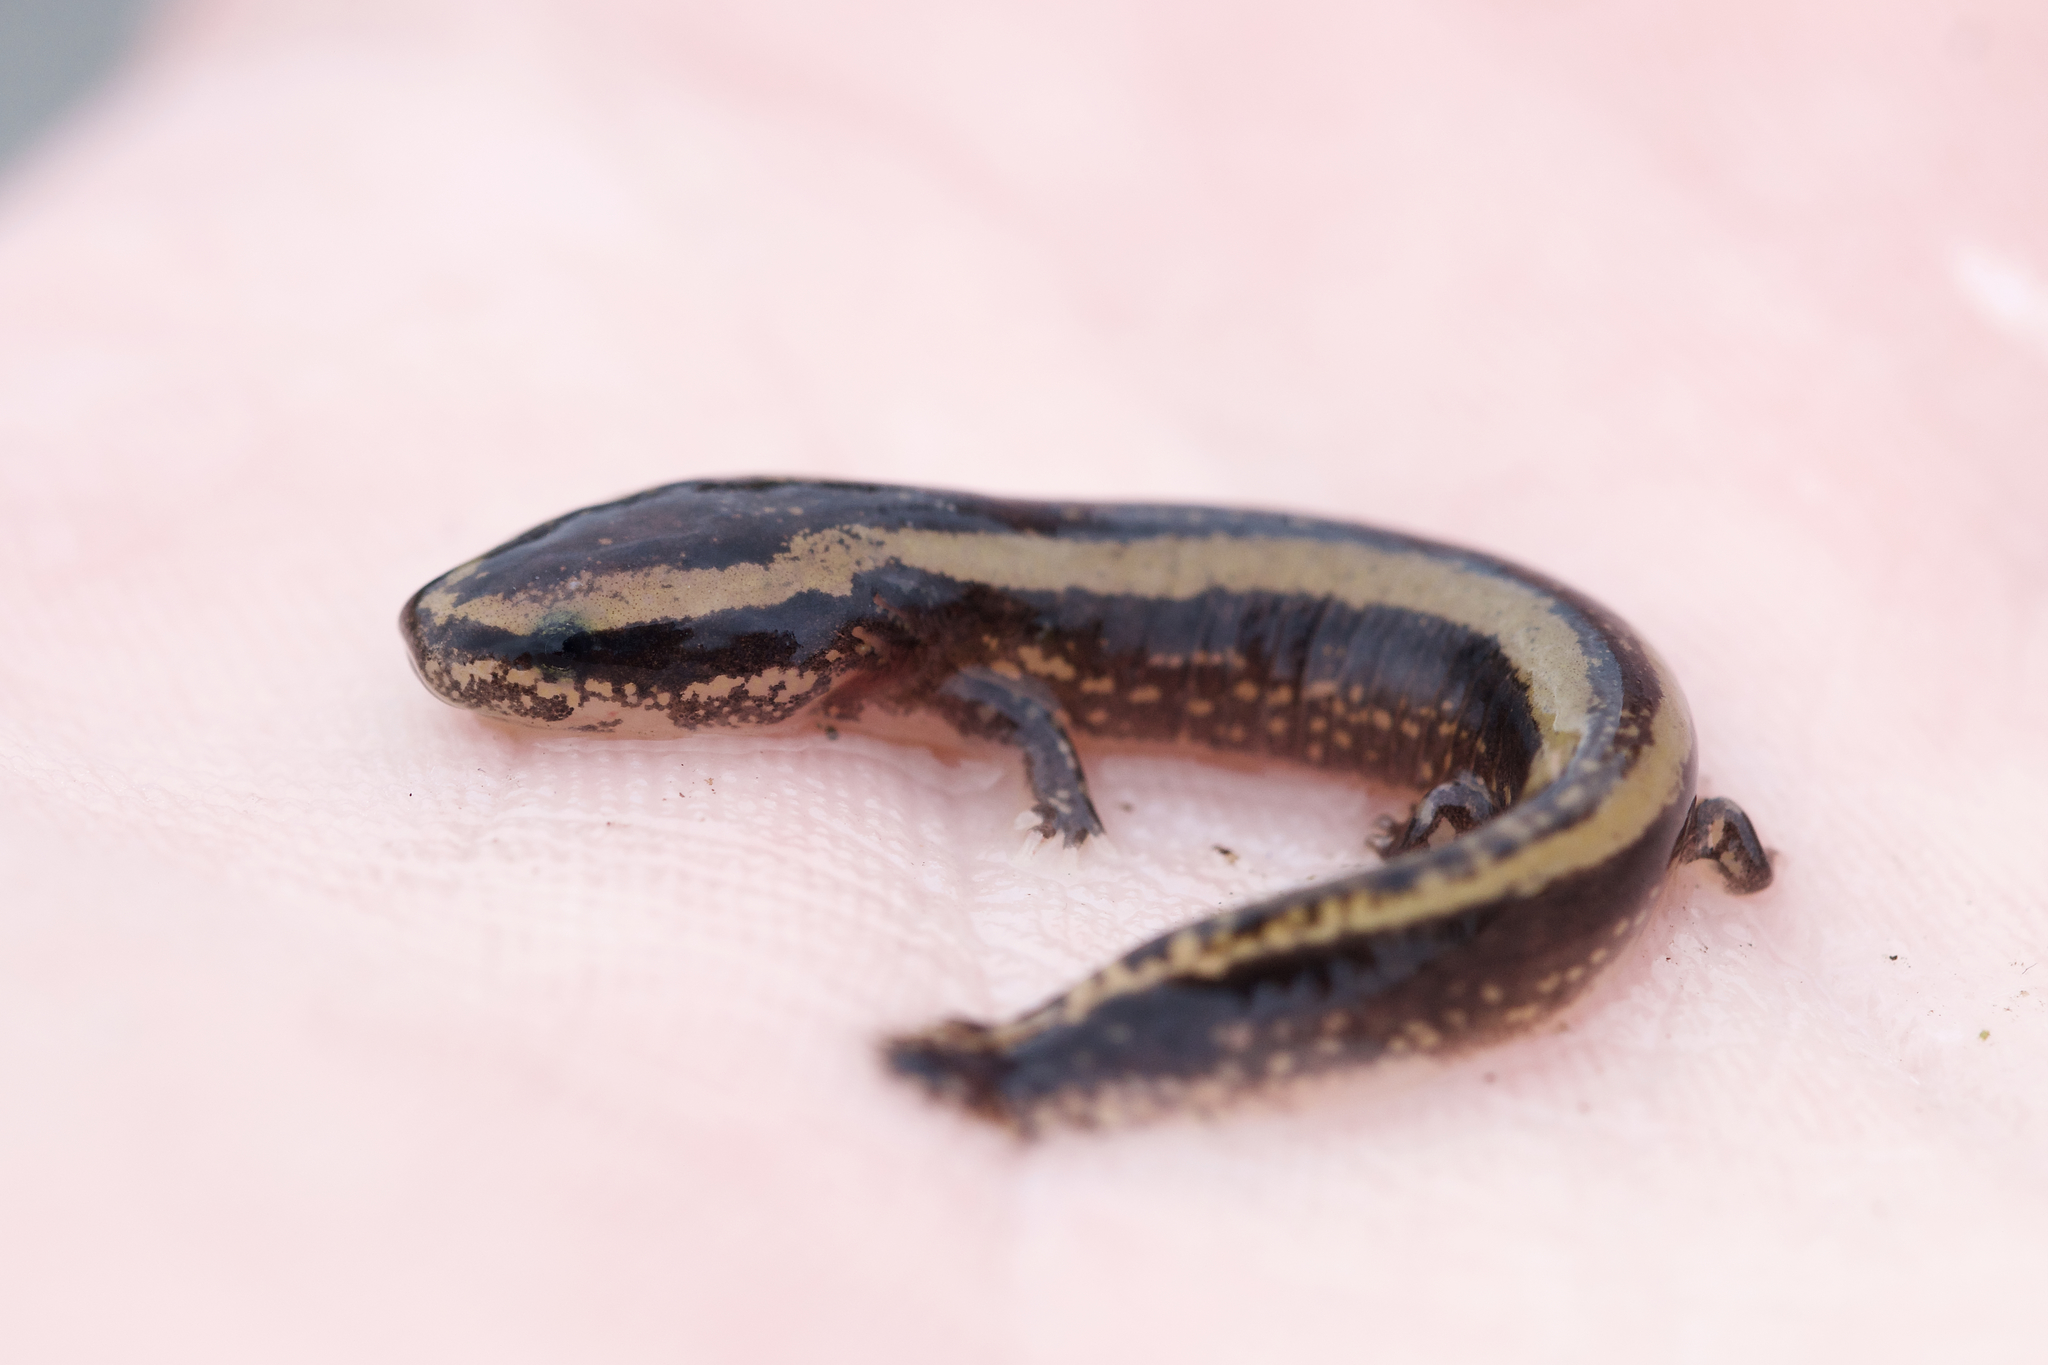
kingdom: Animalia
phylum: Chordata
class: Amphibia
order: Caudata
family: Proteidae
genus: Necturus
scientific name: Necturus maculosus
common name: Mudpuppy
